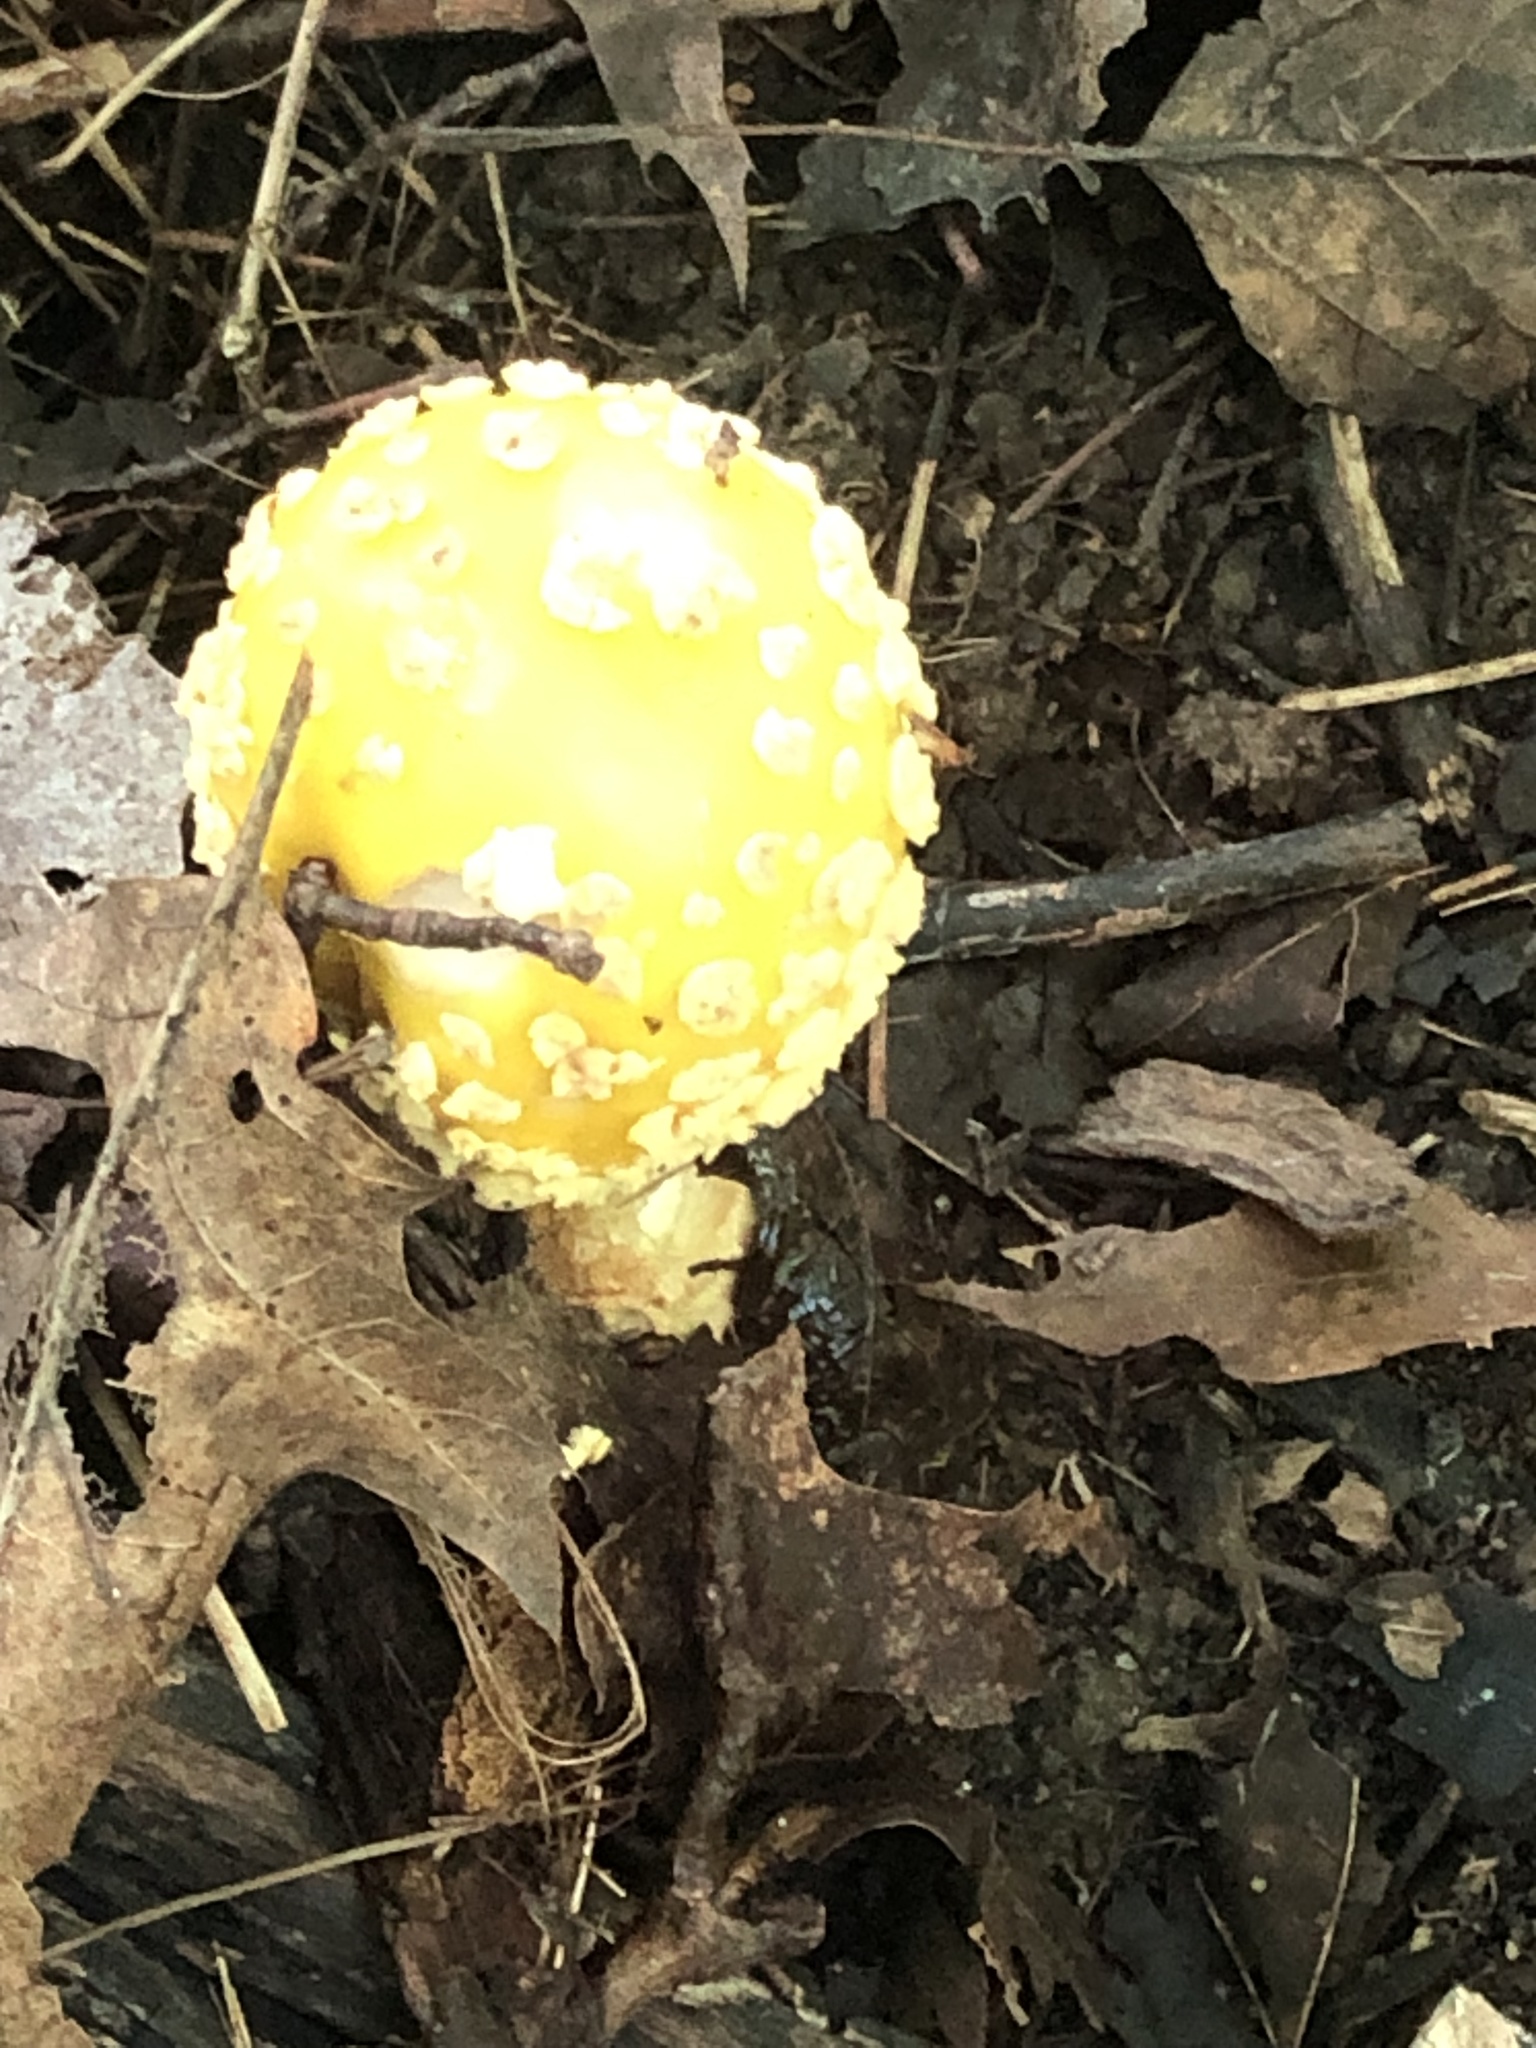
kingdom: Fungi
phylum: Basidiomycota
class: Agaricomycetes
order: Agaricales
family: Amanitaceae
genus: Amanita
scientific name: Amanita muscaria
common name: Fly agaric
